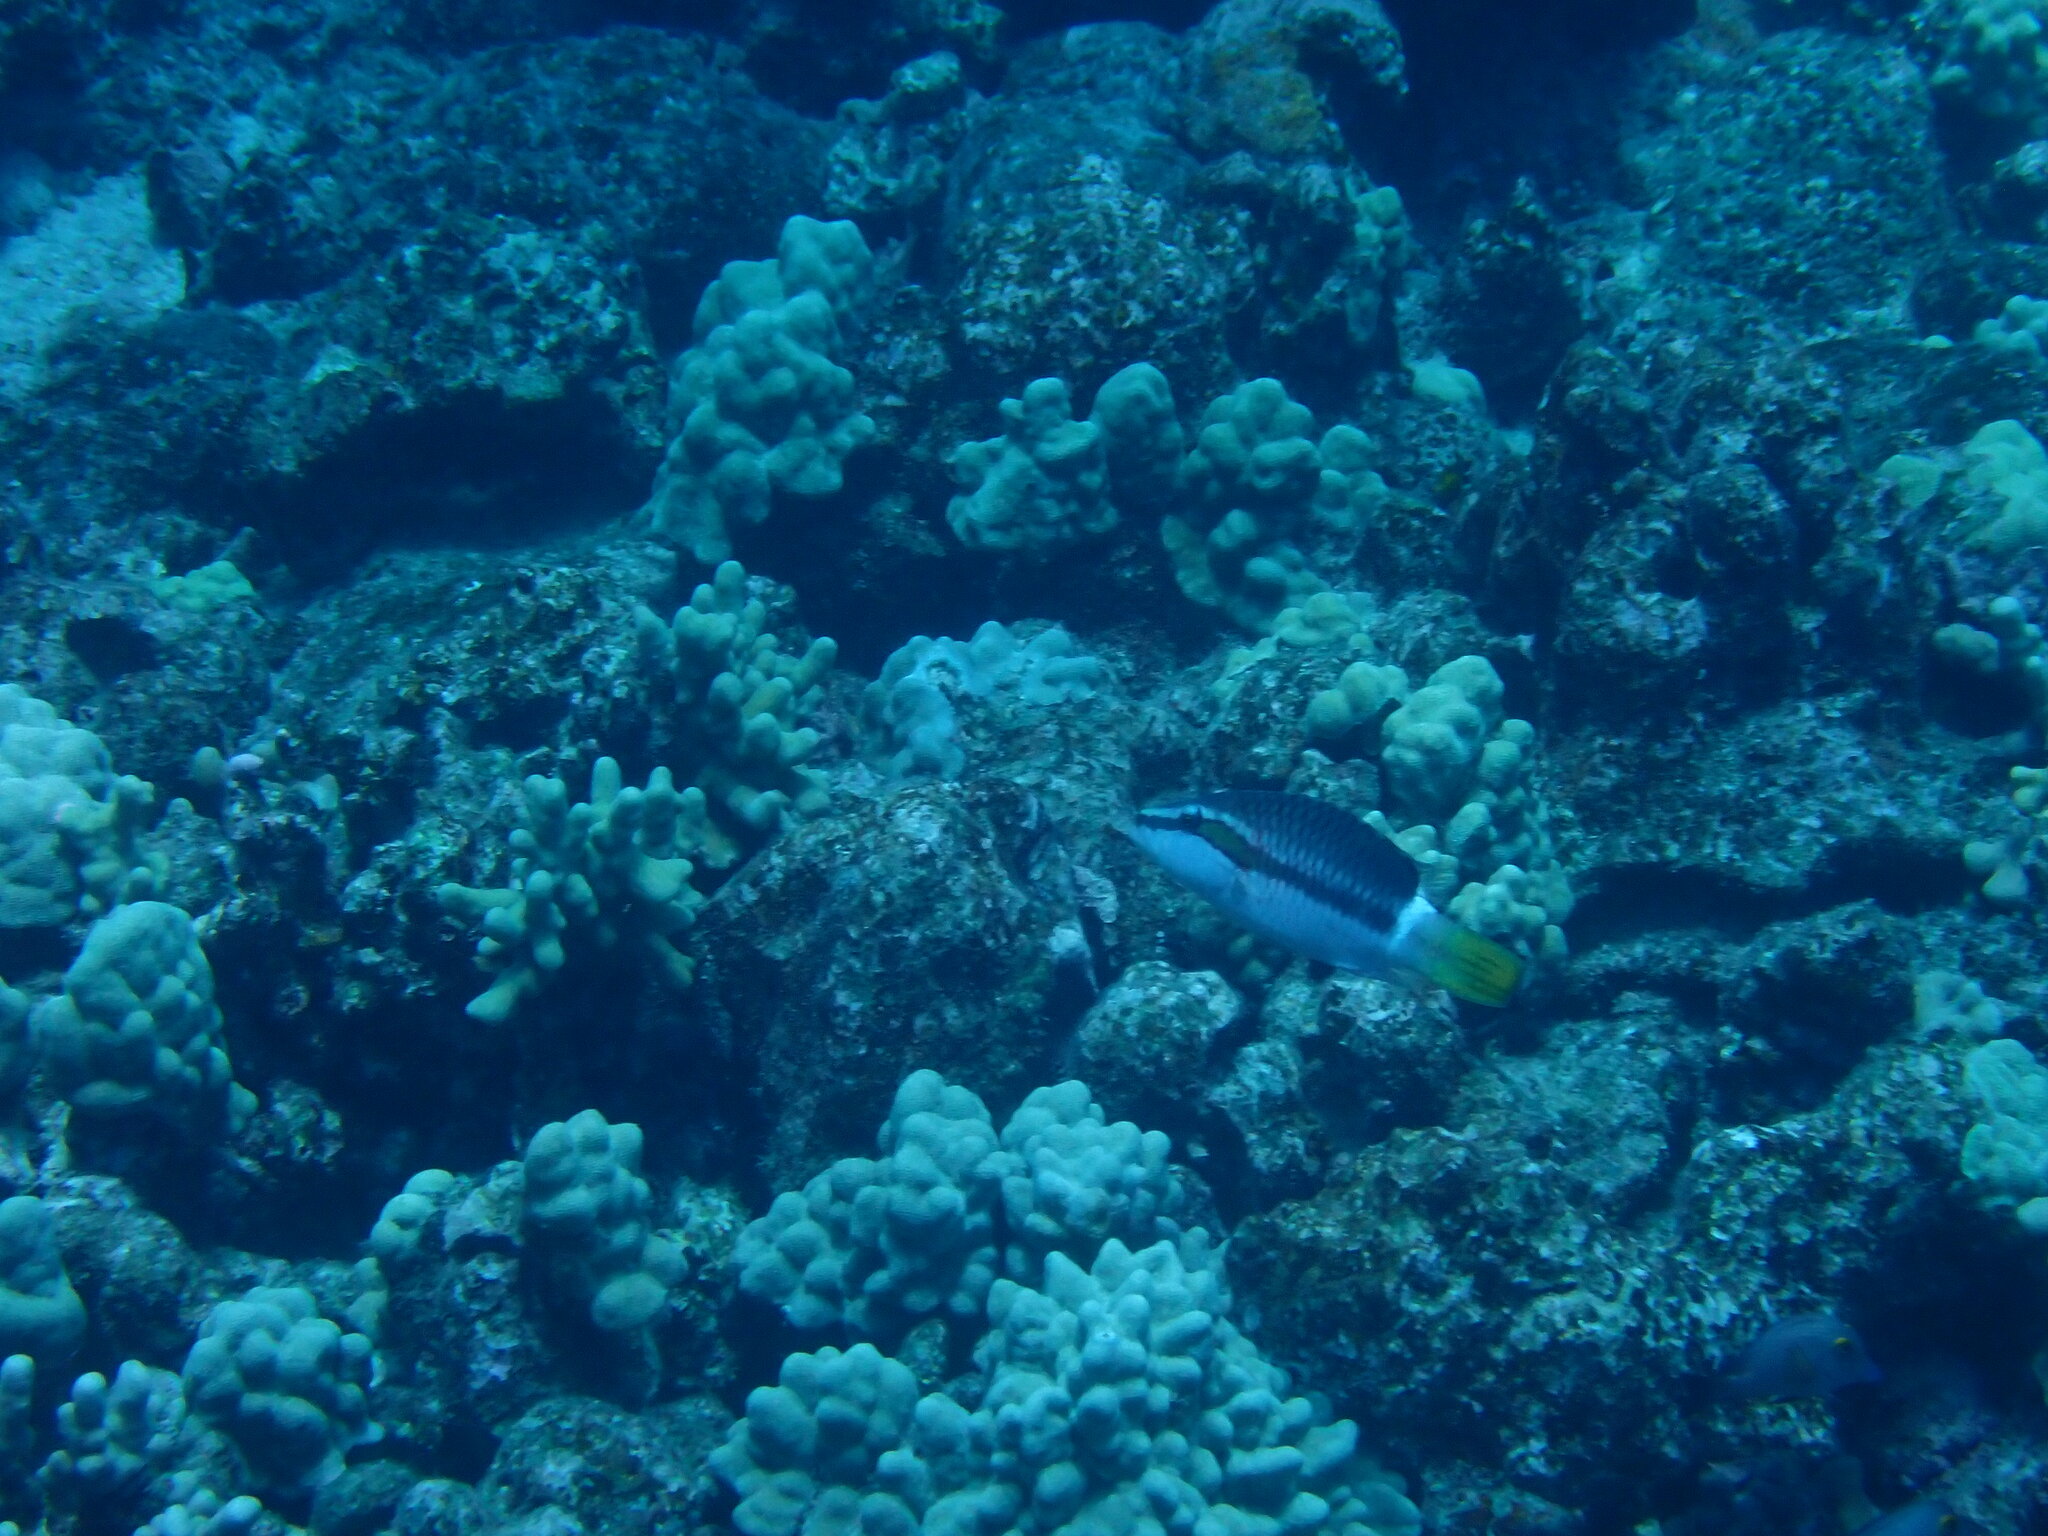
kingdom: Animalia
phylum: Chordata
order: Perciformes
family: Labridae
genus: Oxycheilinus
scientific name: Oxycheilinus unifasciatus
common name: Ringtail maori wrasse
